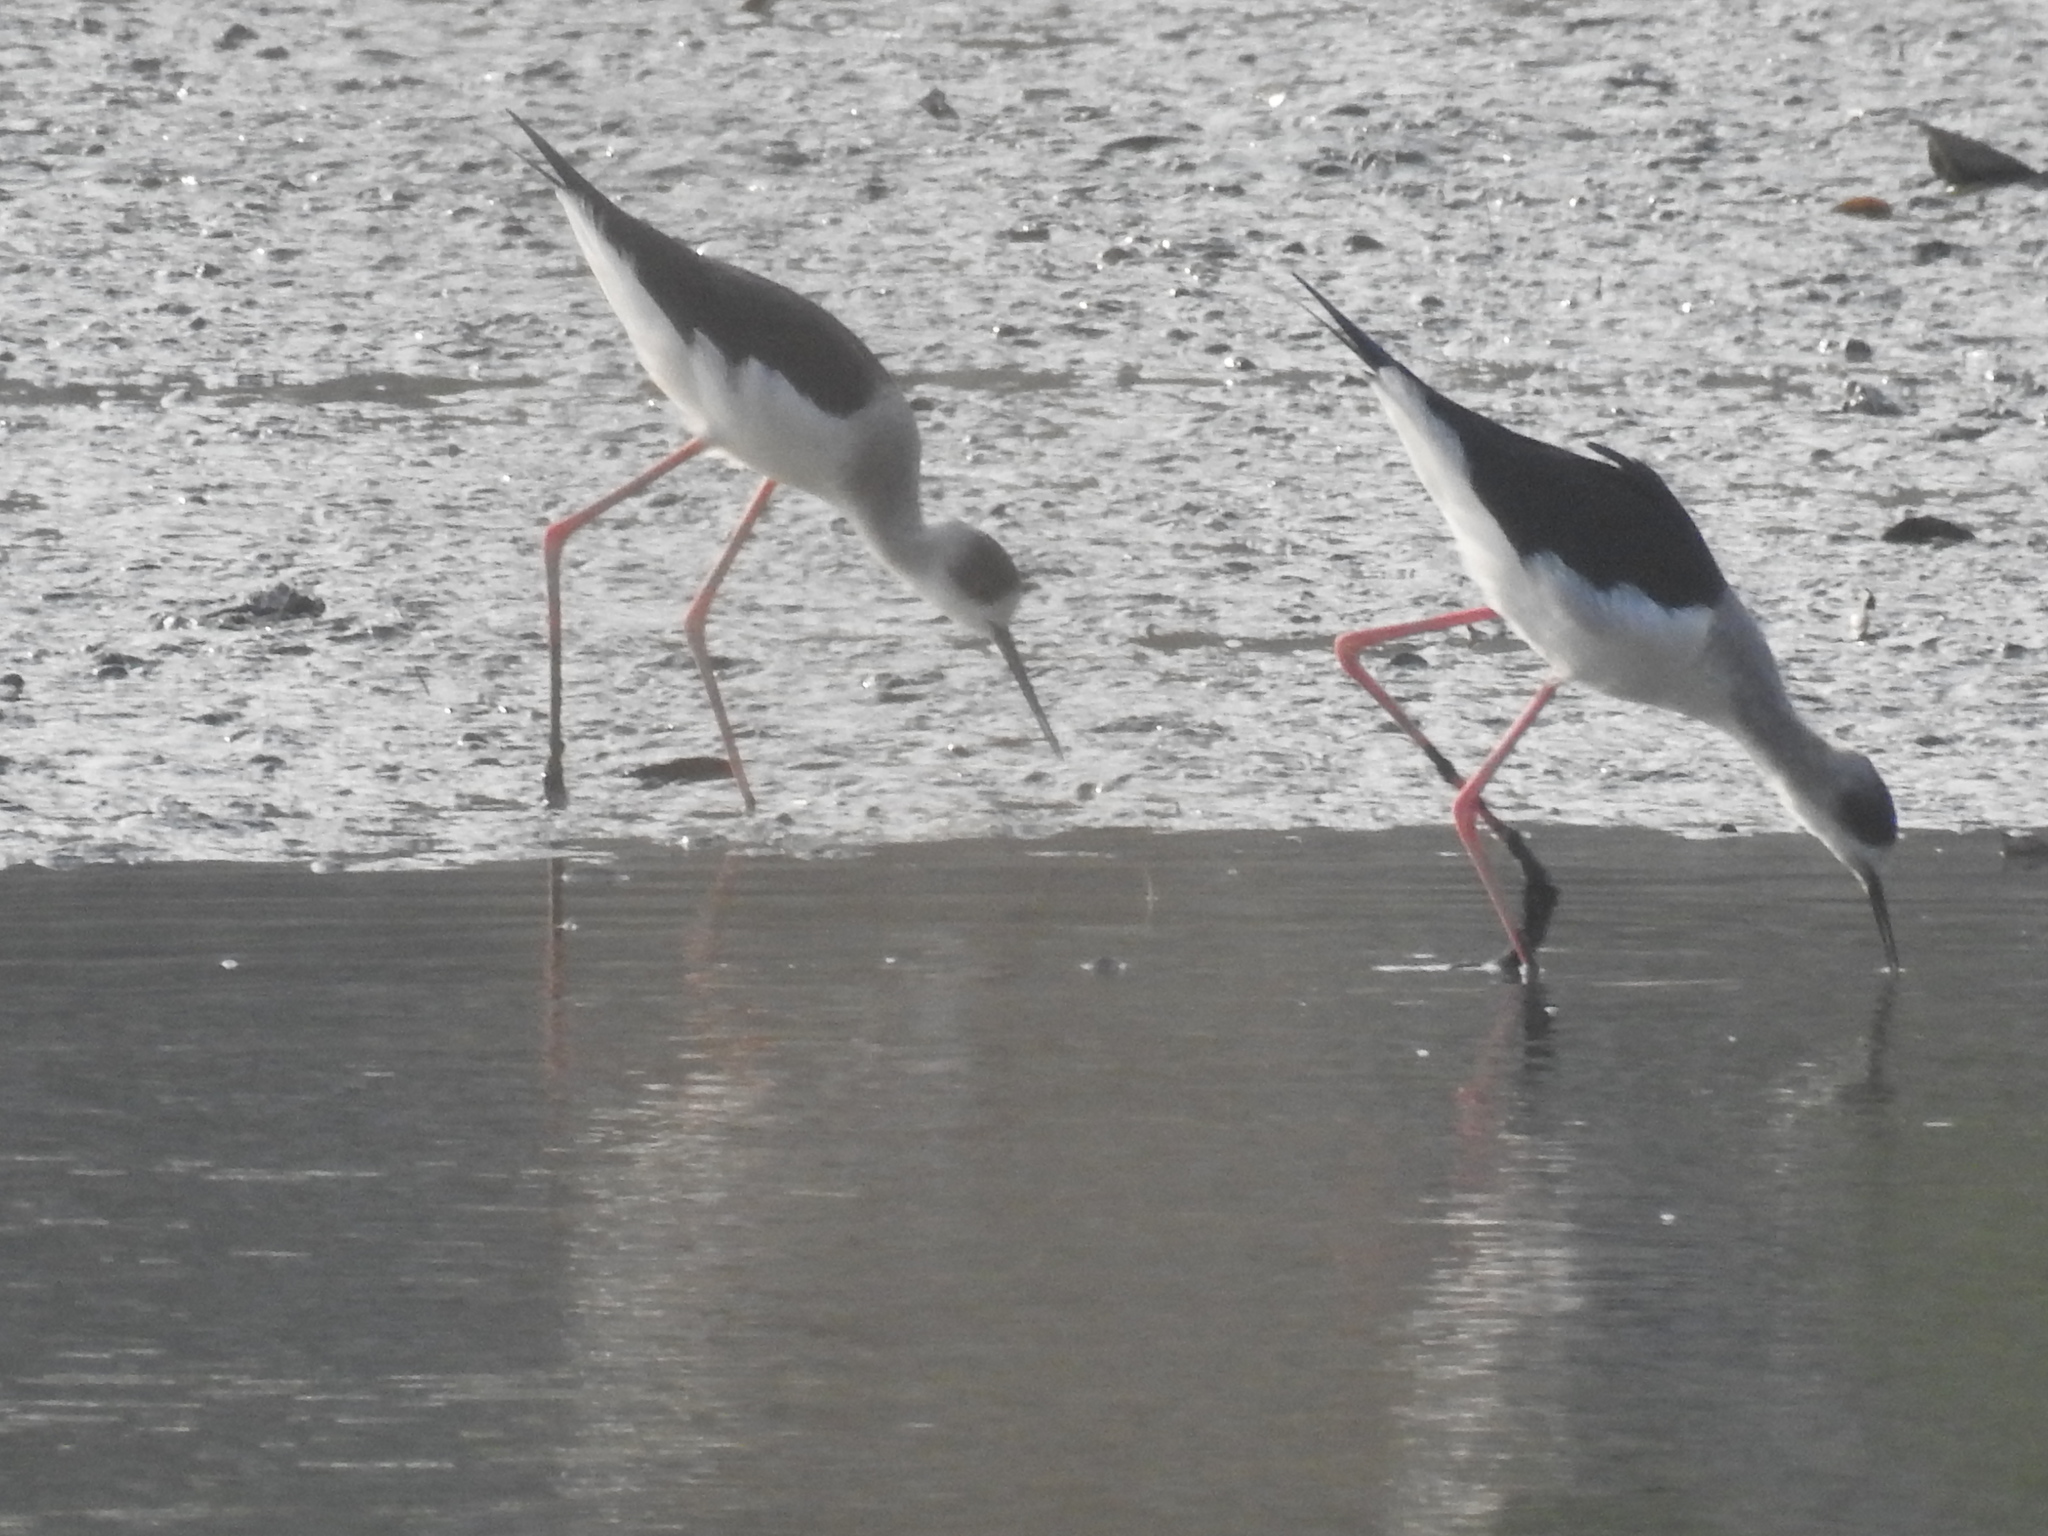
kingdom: Animalia
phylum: Chordata
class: Aves
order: Charadriiformes
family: Recurvirostridae
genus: Himantopus
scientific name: Himantopus himantopus
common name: Black-winged stilt
